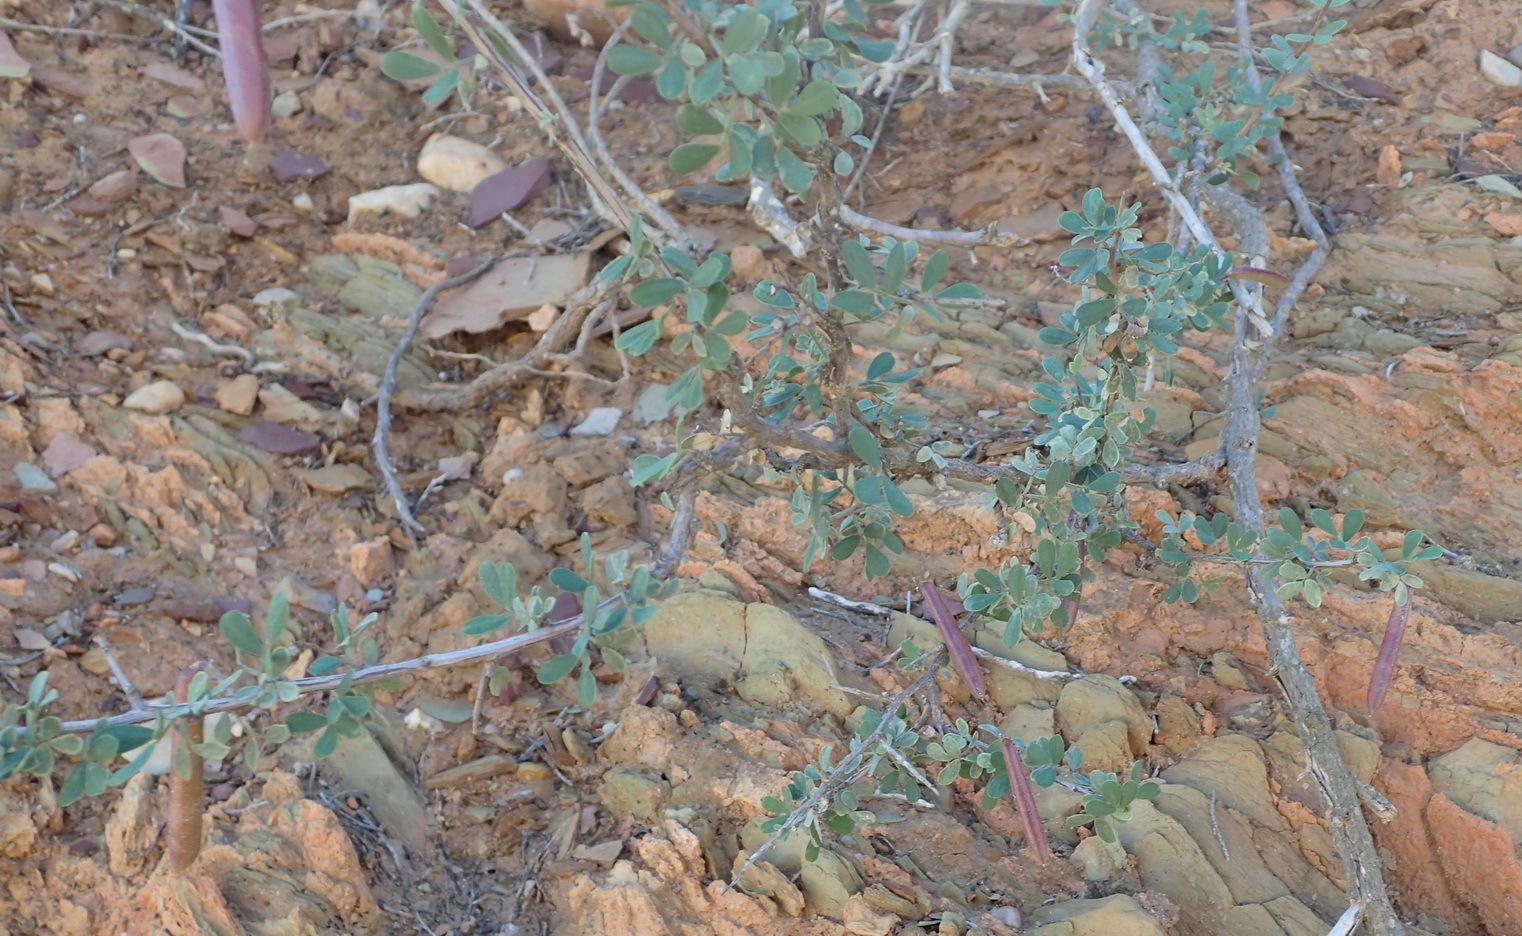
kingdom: Plantae
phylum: Tracheophyta
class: Magnoliopsida
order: Fabales
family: Fabaceae
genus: Indigofera
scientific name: Indigofera nigromontana
